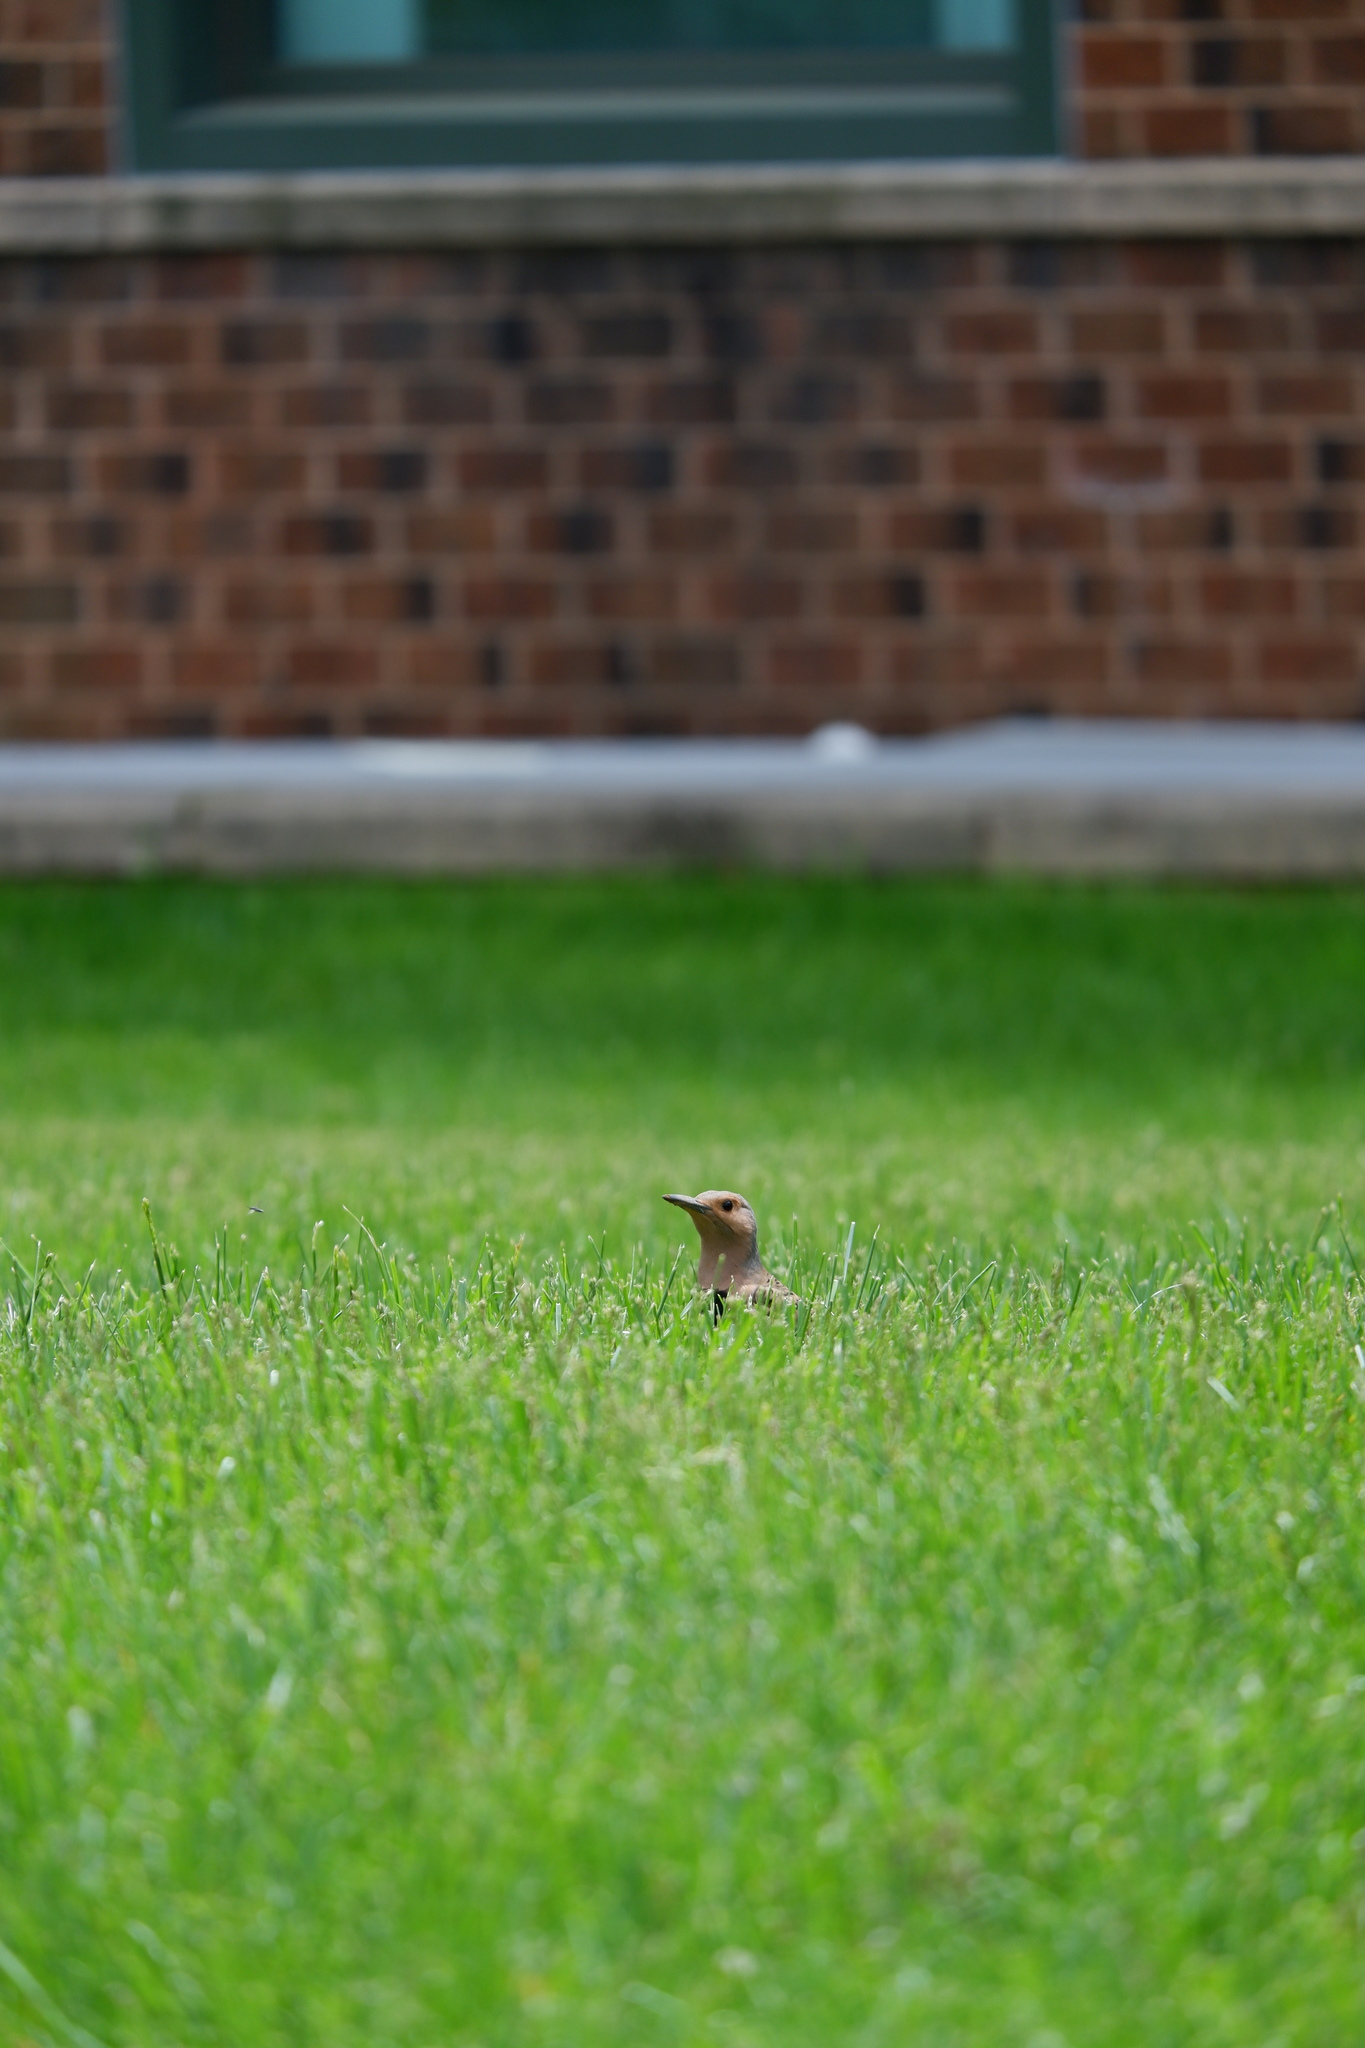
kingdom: Animalia
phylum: Chordata
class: Aves
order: Piciformes
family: Picidae
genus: Colaptes
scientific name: Colaptes auratus
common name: Northern flicker
